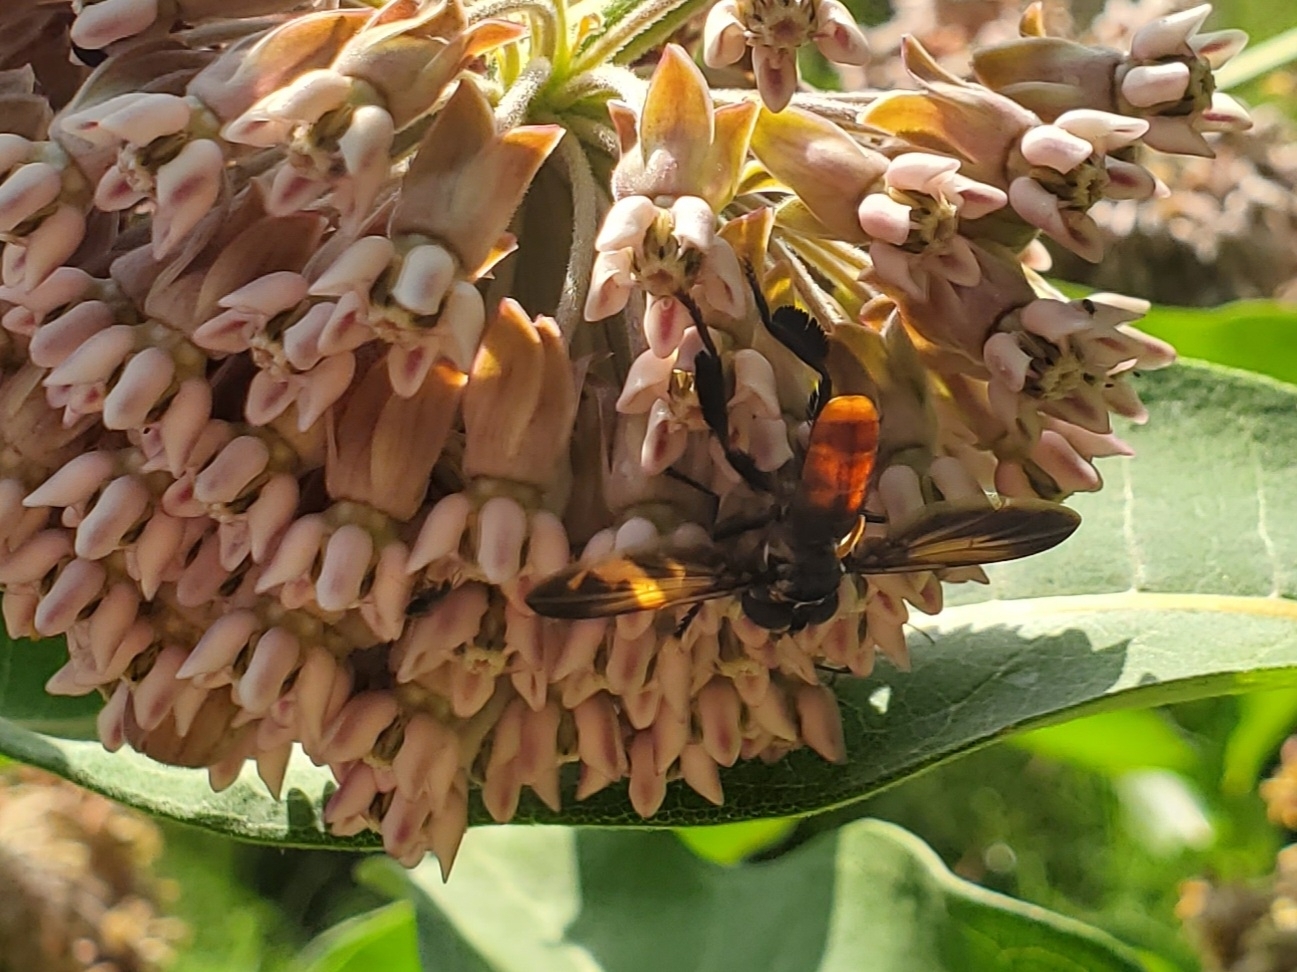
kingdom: Animalia
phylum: Arthropoda
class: Insecta
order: Diptera
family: Tachinidae
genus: Trichopoda
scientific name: Trichopoda lanipes
